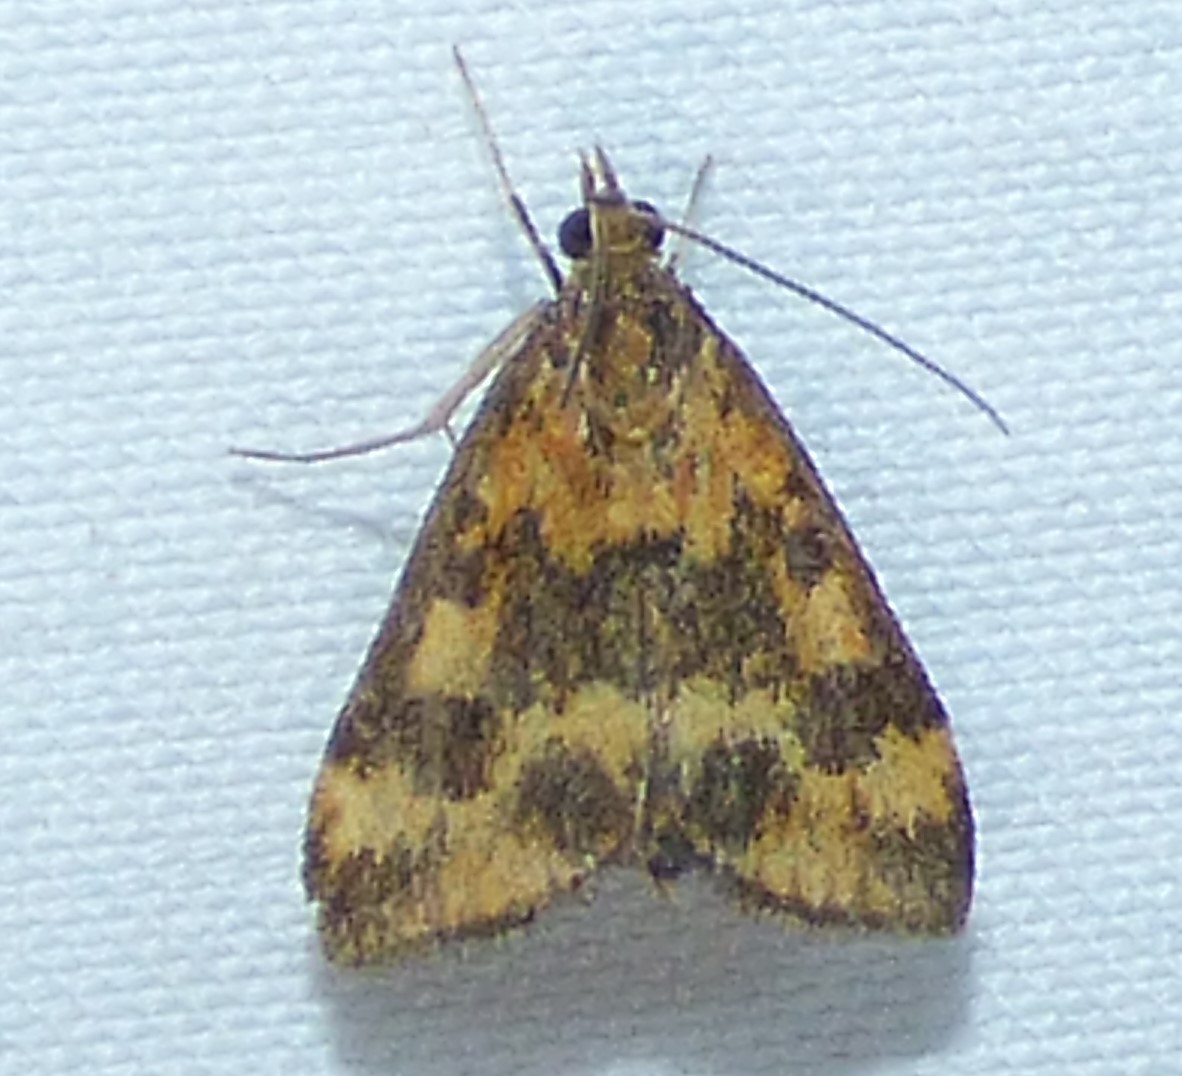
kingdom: Animalia
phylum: Arthropoda
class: Insecta
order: Lepidoptera
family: Crambidae
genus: Pyrausta
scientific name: Pyrausta subsequalis
